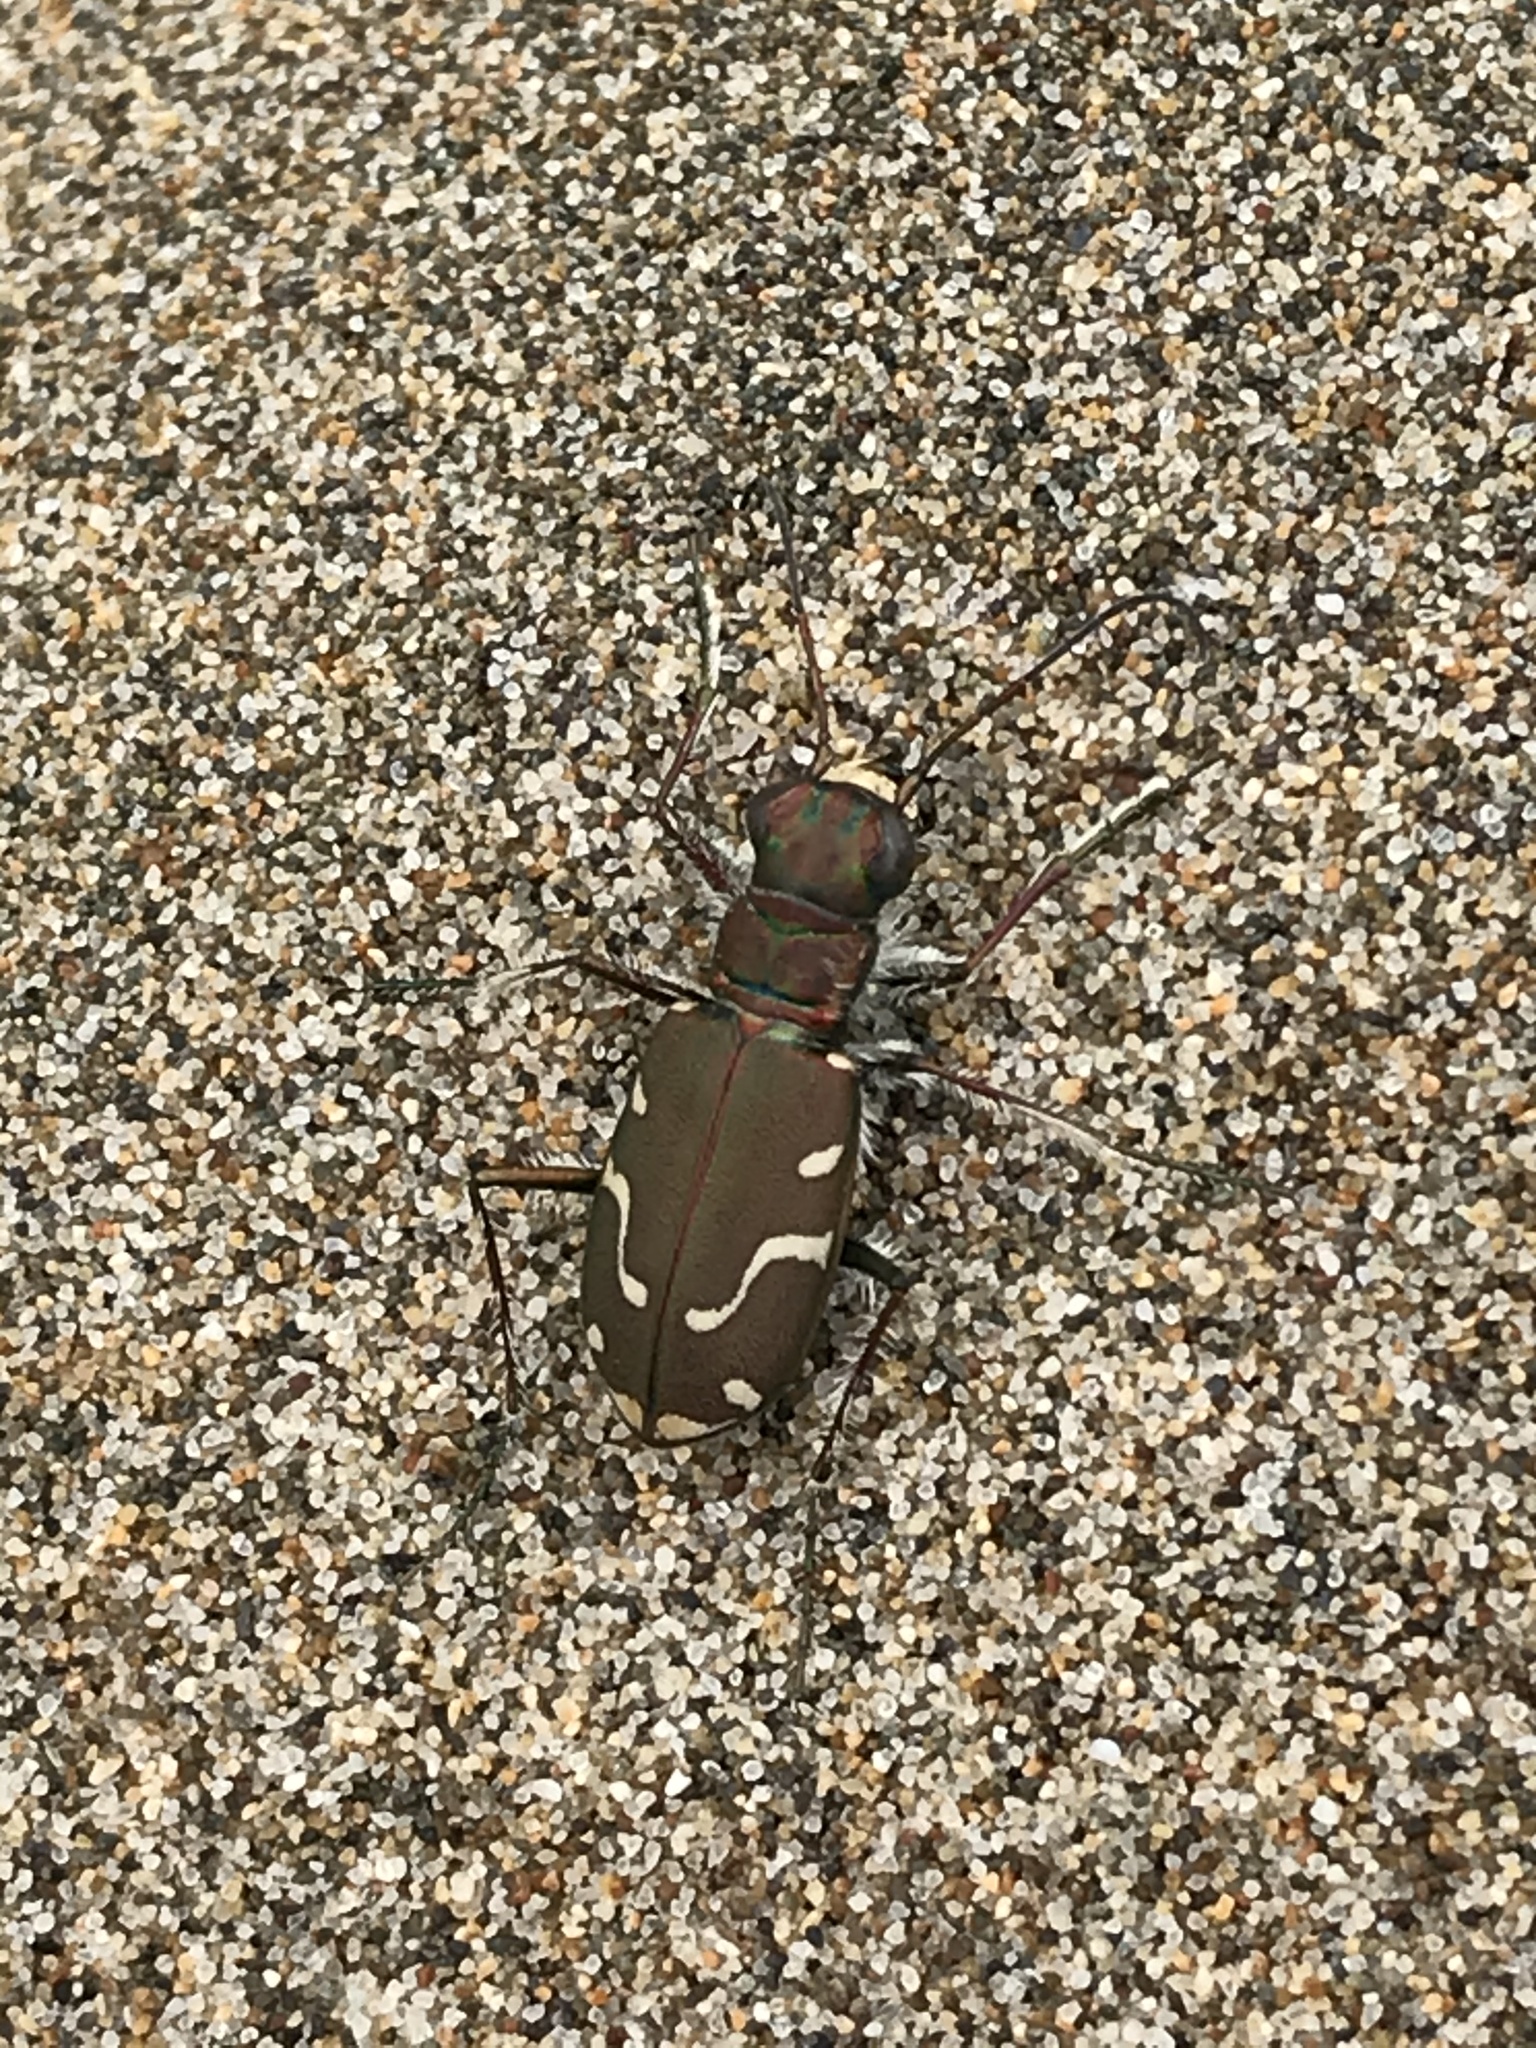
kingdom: Animalia
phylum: Arthropoda
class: Insecta
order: Coleoptera
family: Carabidae
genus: Cicindela
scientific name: Cicindela depressula
